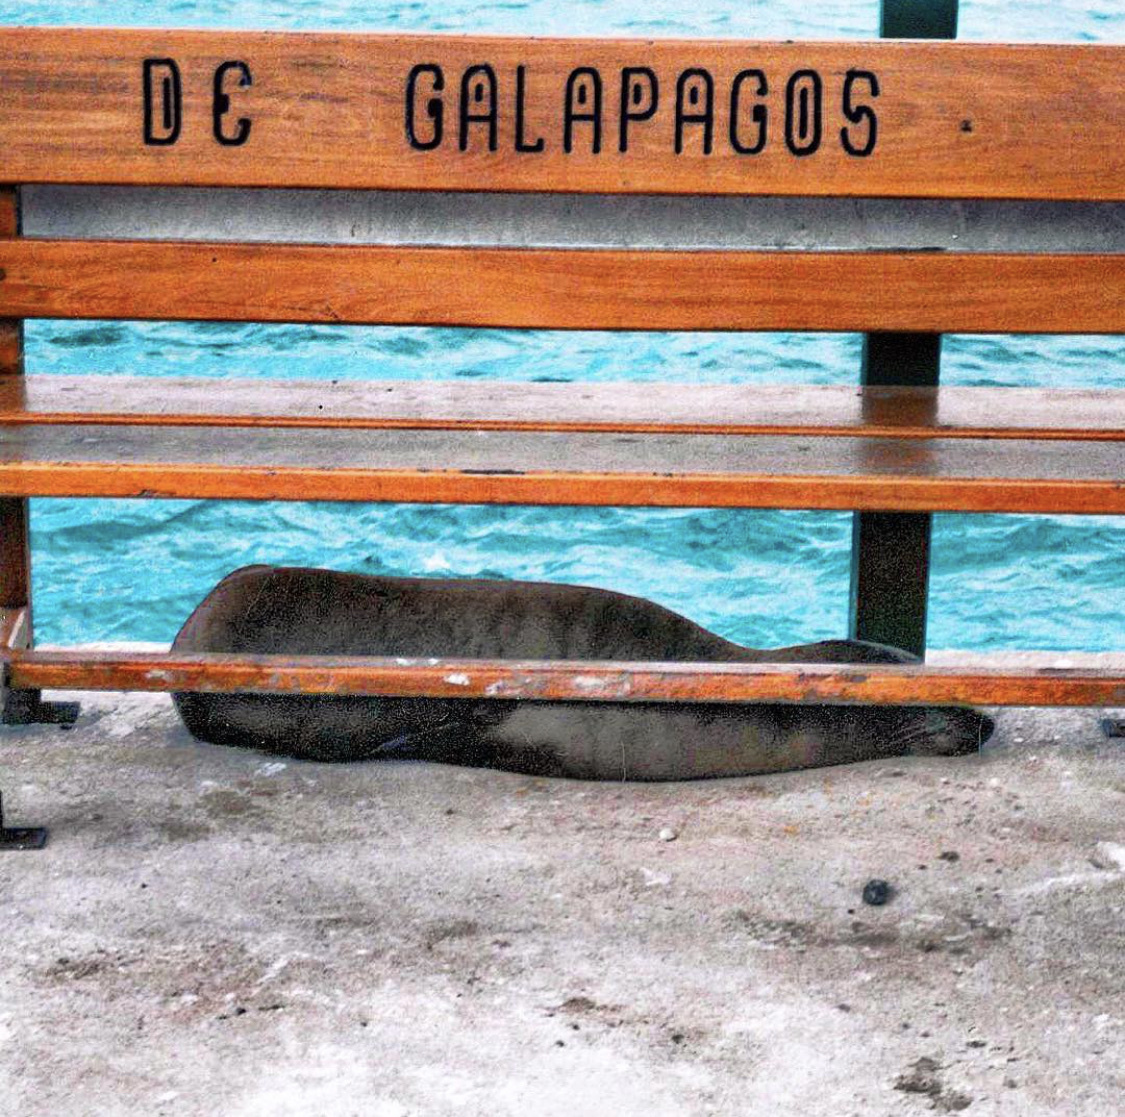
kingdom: Animalia
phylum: Chordata
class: Mammalia
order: Carnivora
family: Otariidae
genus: Zalophus
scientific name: Zalophus wollebaeki
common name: Galapagos sea lion
